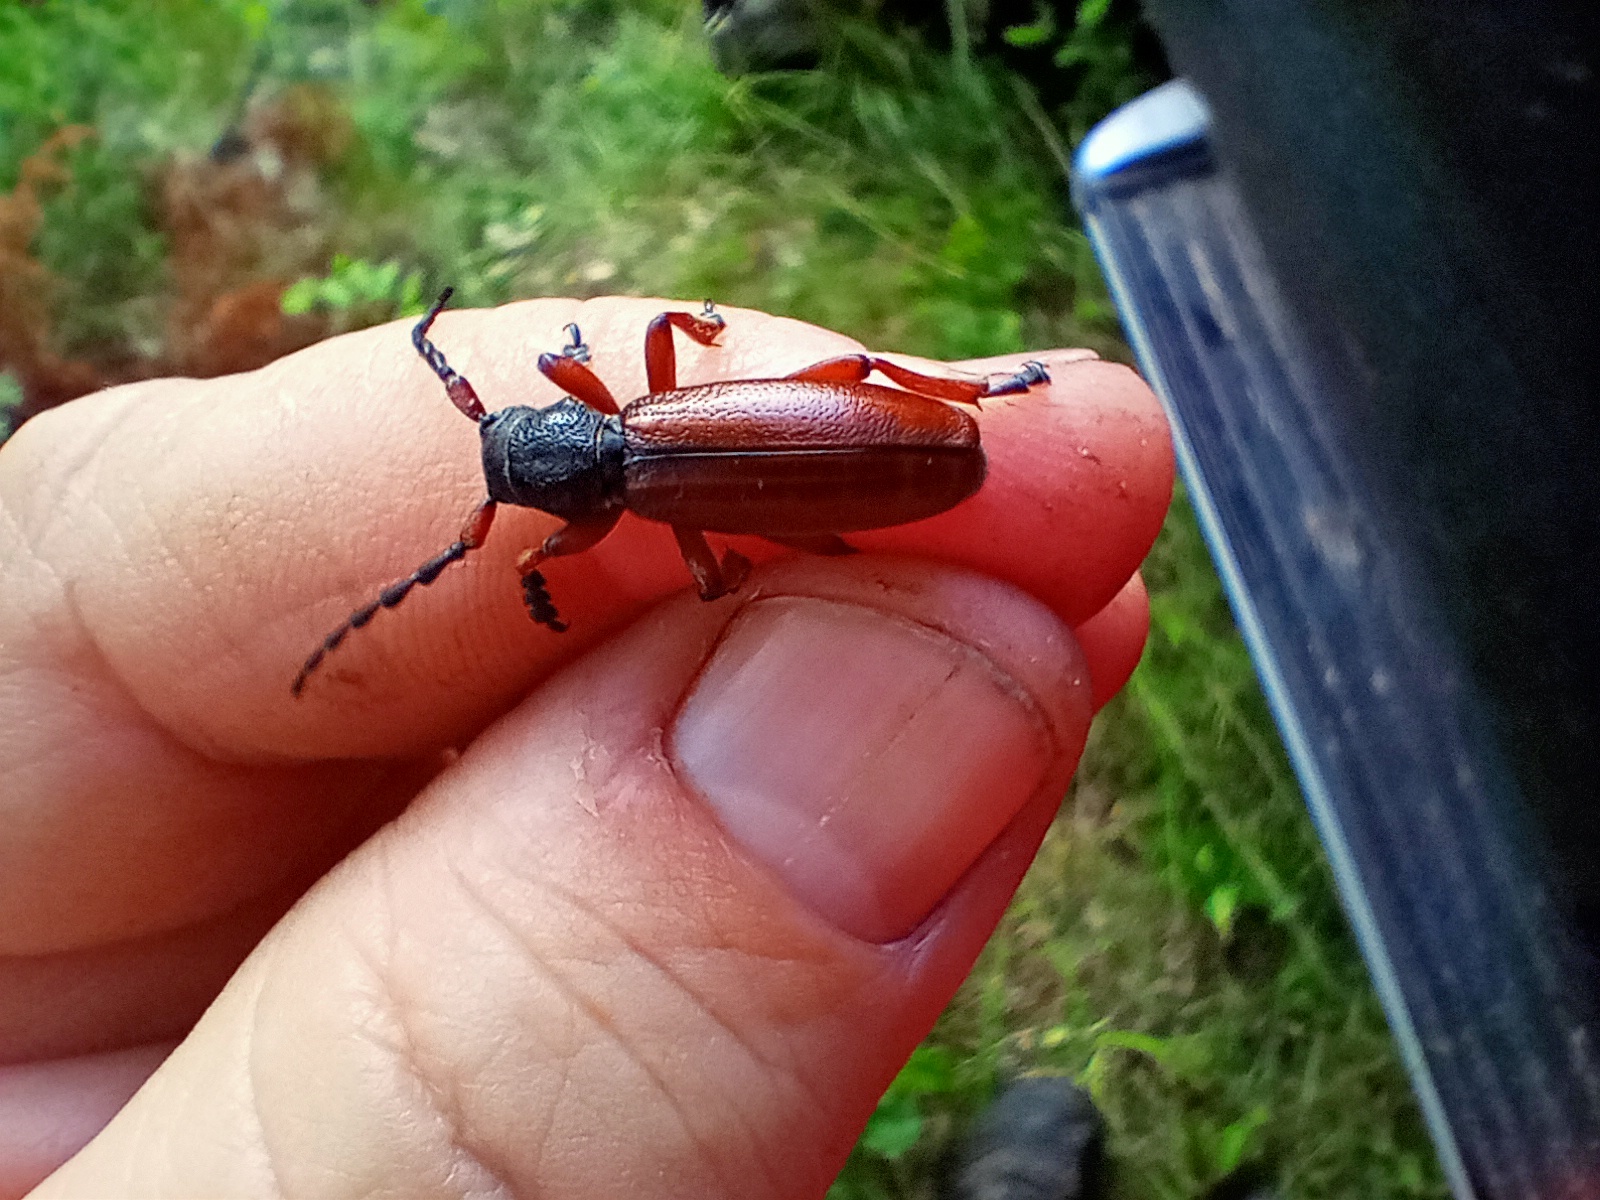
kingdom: Animalia
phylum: Arthropoda
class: Insecta
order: Coleoptera
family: Cerambycidae
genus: Dorcadion
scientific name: Dorcadion fulvum
